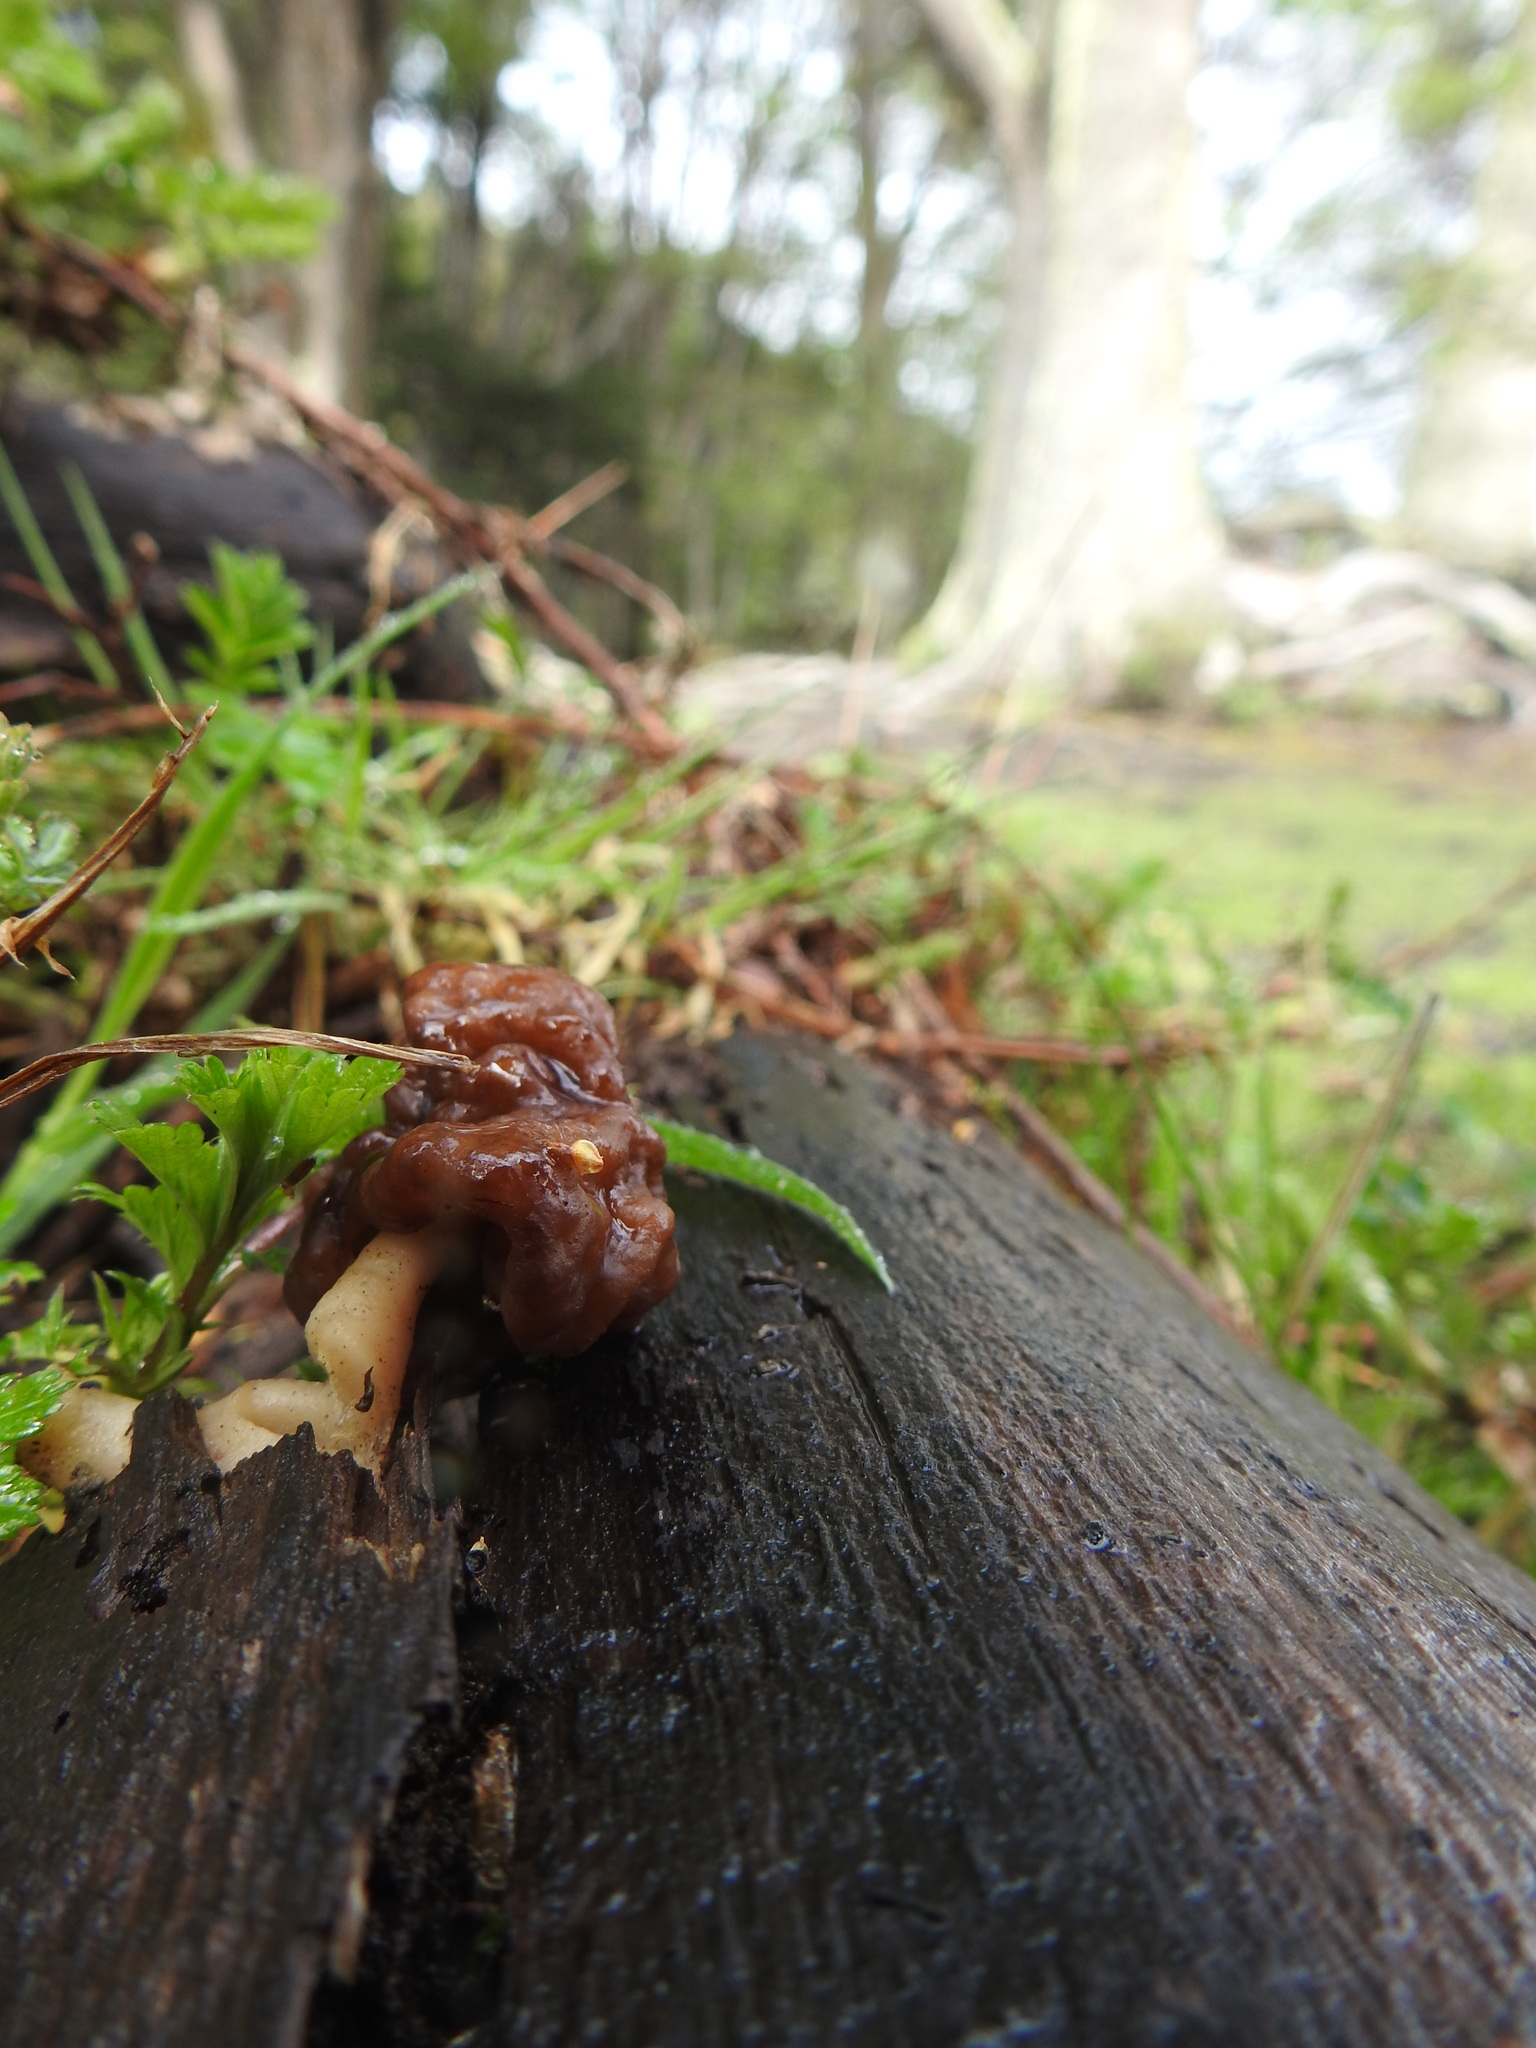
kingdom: Fungi
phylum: Ascomycota
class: Pezizomycetes
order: Pezizales
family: Discinaceae
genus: Gyromitra
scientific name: Gyromitra antarctica
